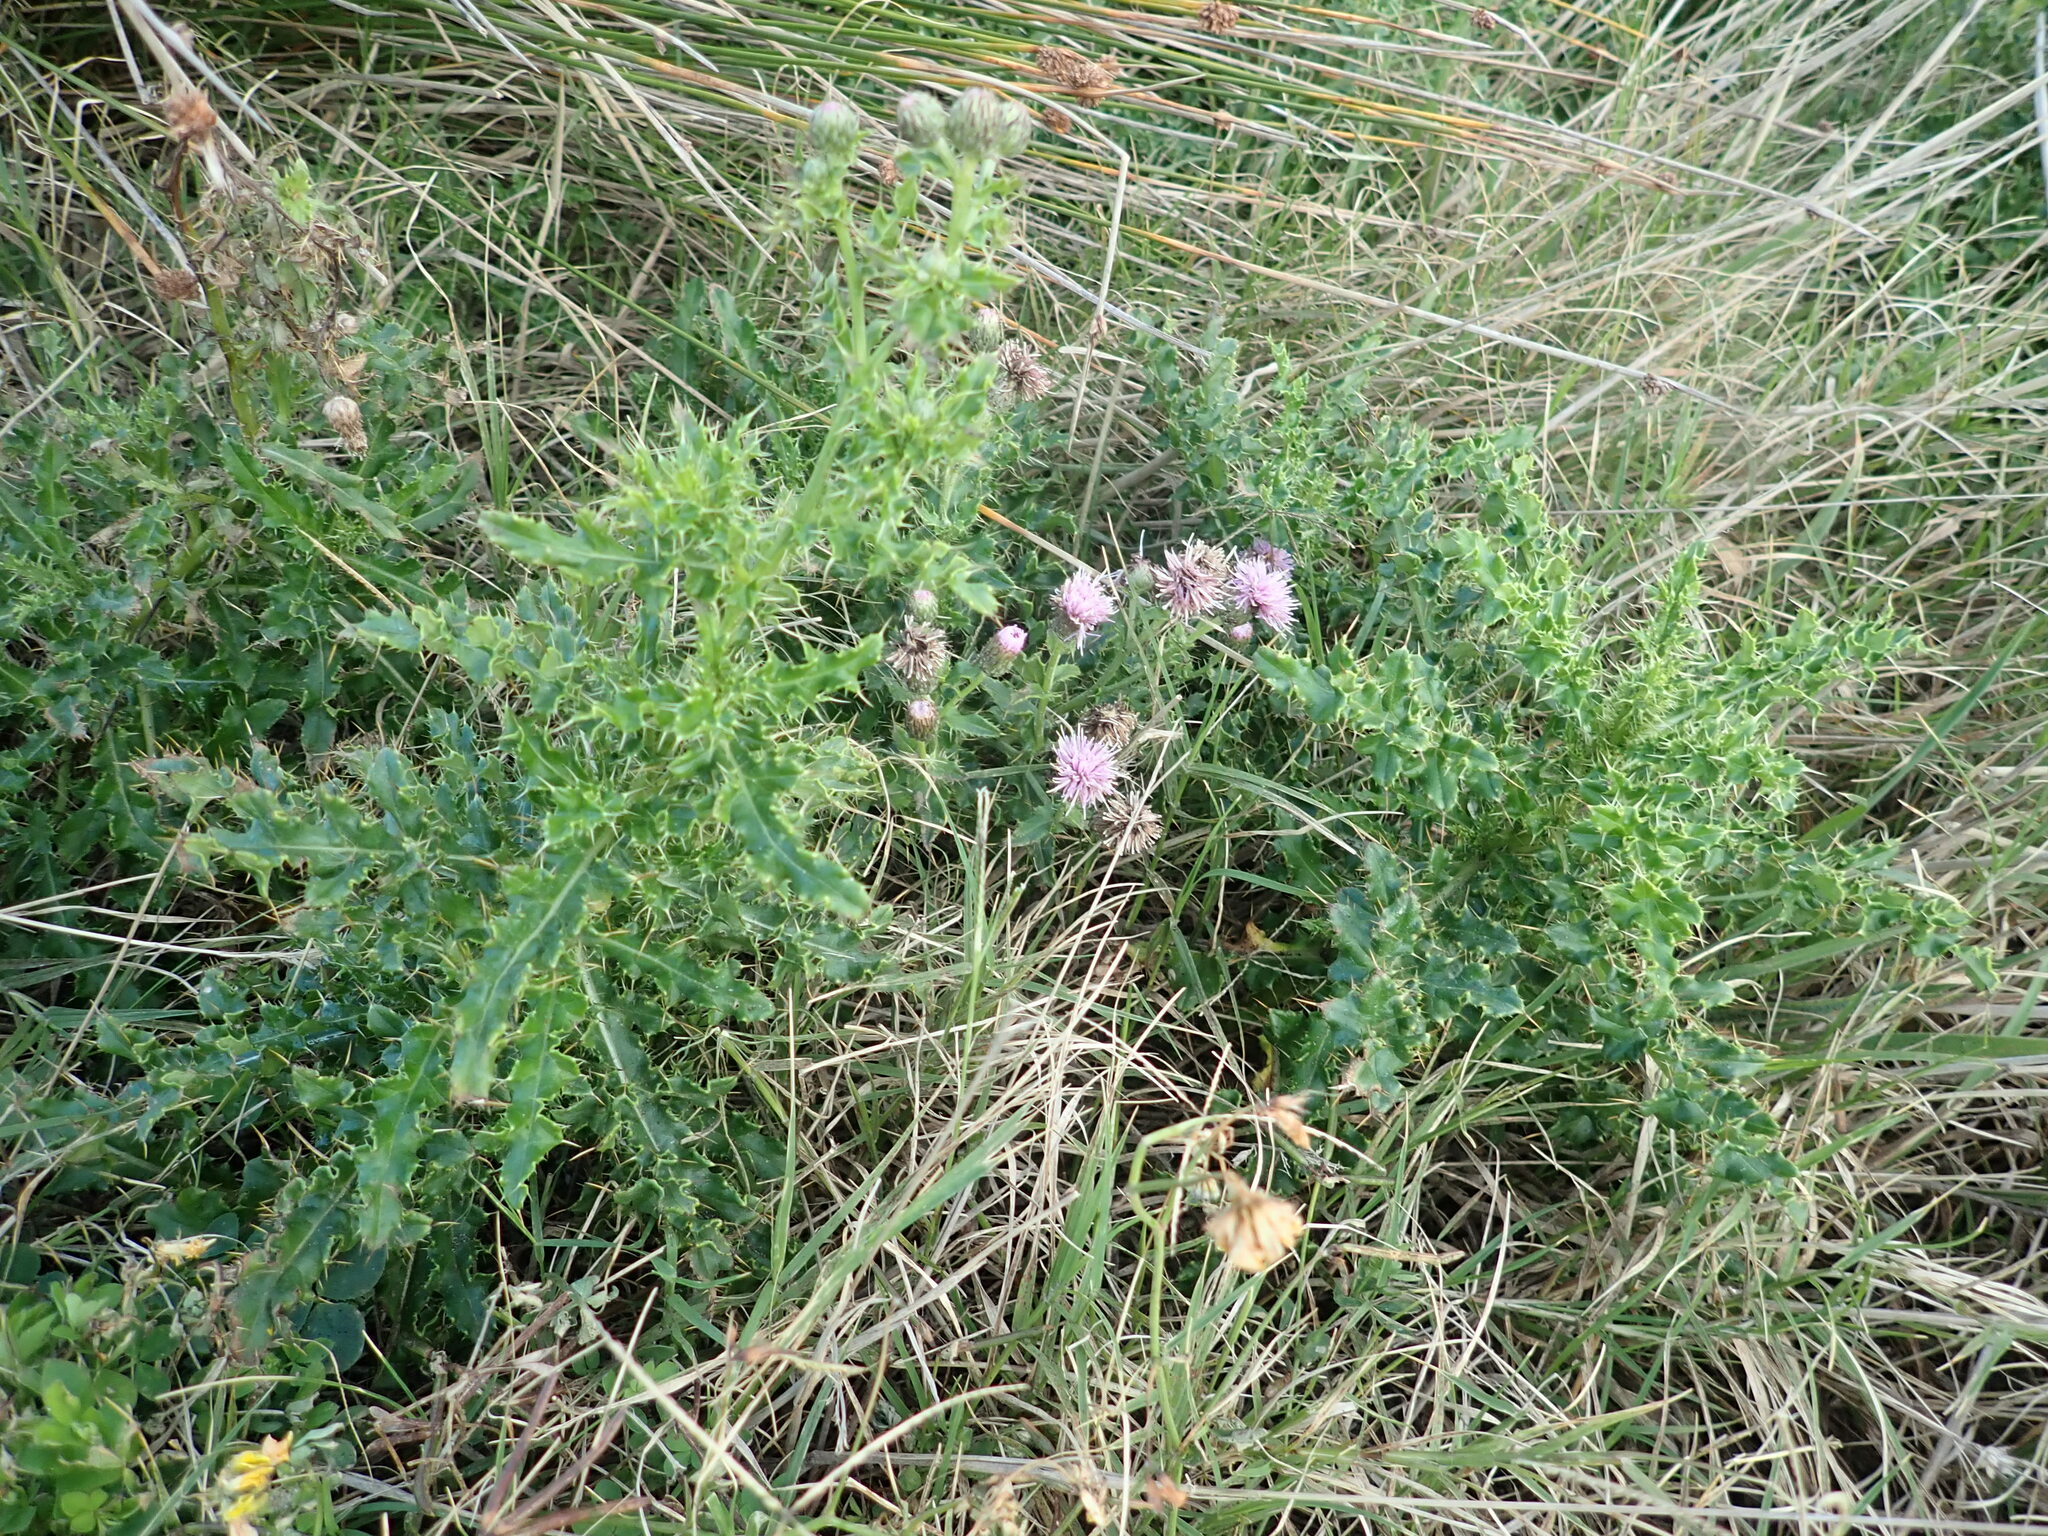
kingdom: Plantae
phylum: Tracheophyta
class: Magnoliopsida
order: Asterales
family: Asteraceae
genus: Cirsium
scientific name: Cirsium arvense
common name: Creeping thistle
